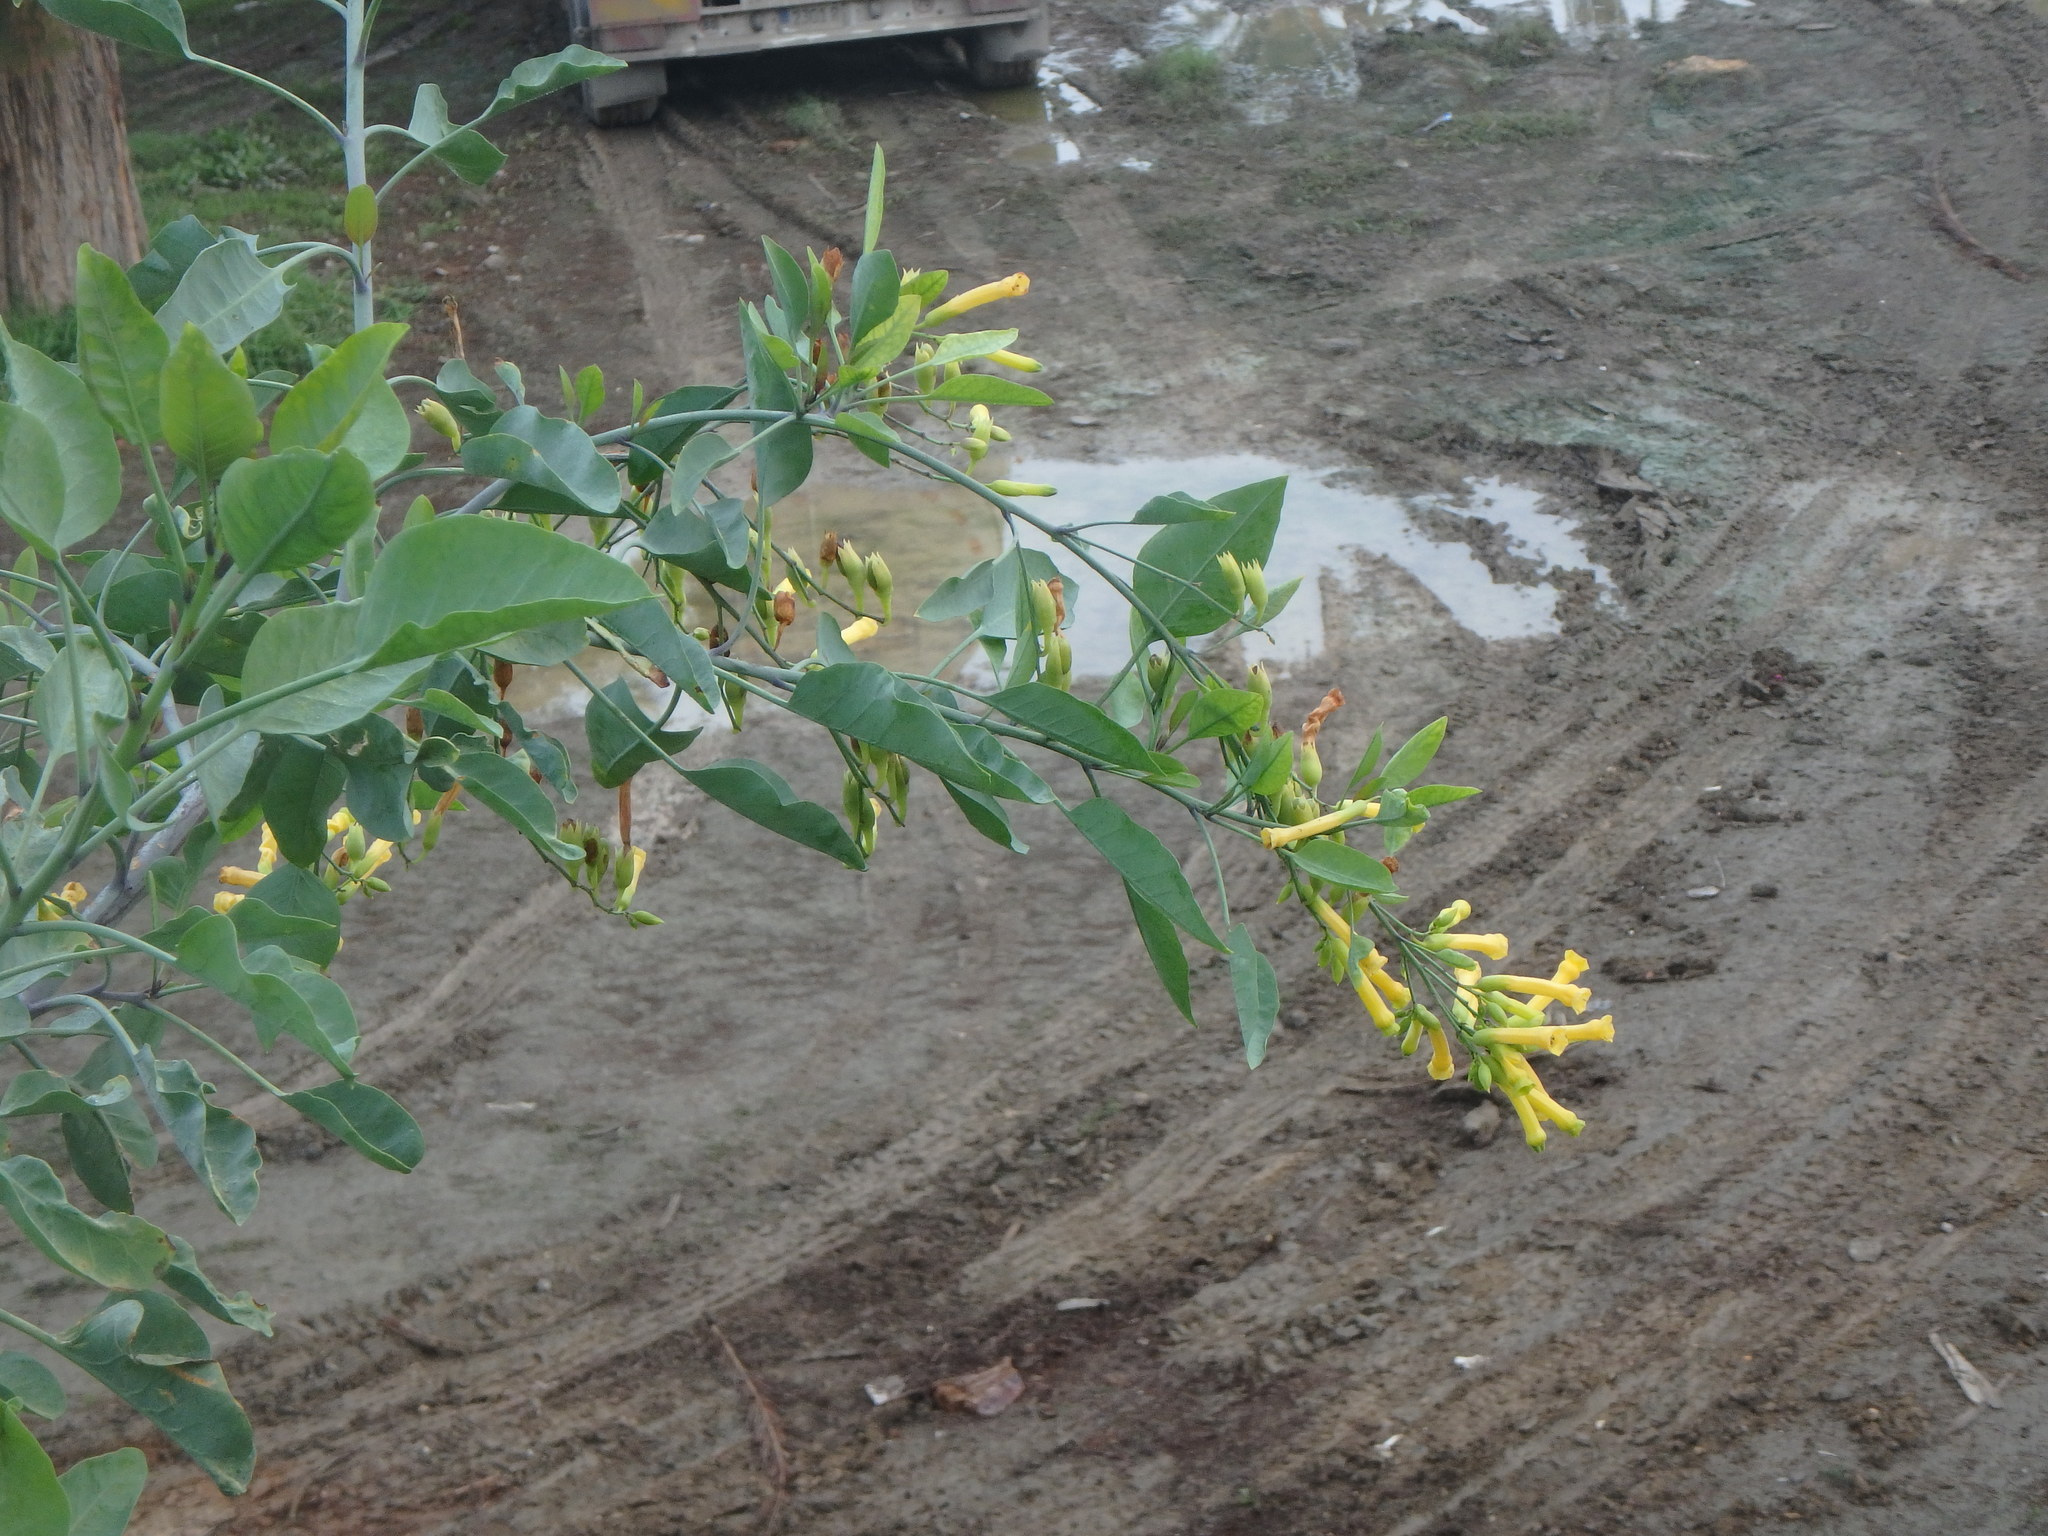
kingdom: Plantae
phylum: Tracheophyta
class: Magnoliopsida
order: Solanales
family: Solanaceae
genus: Nicotiana
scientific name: Nicotiana glauca
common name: Tree tobacco
